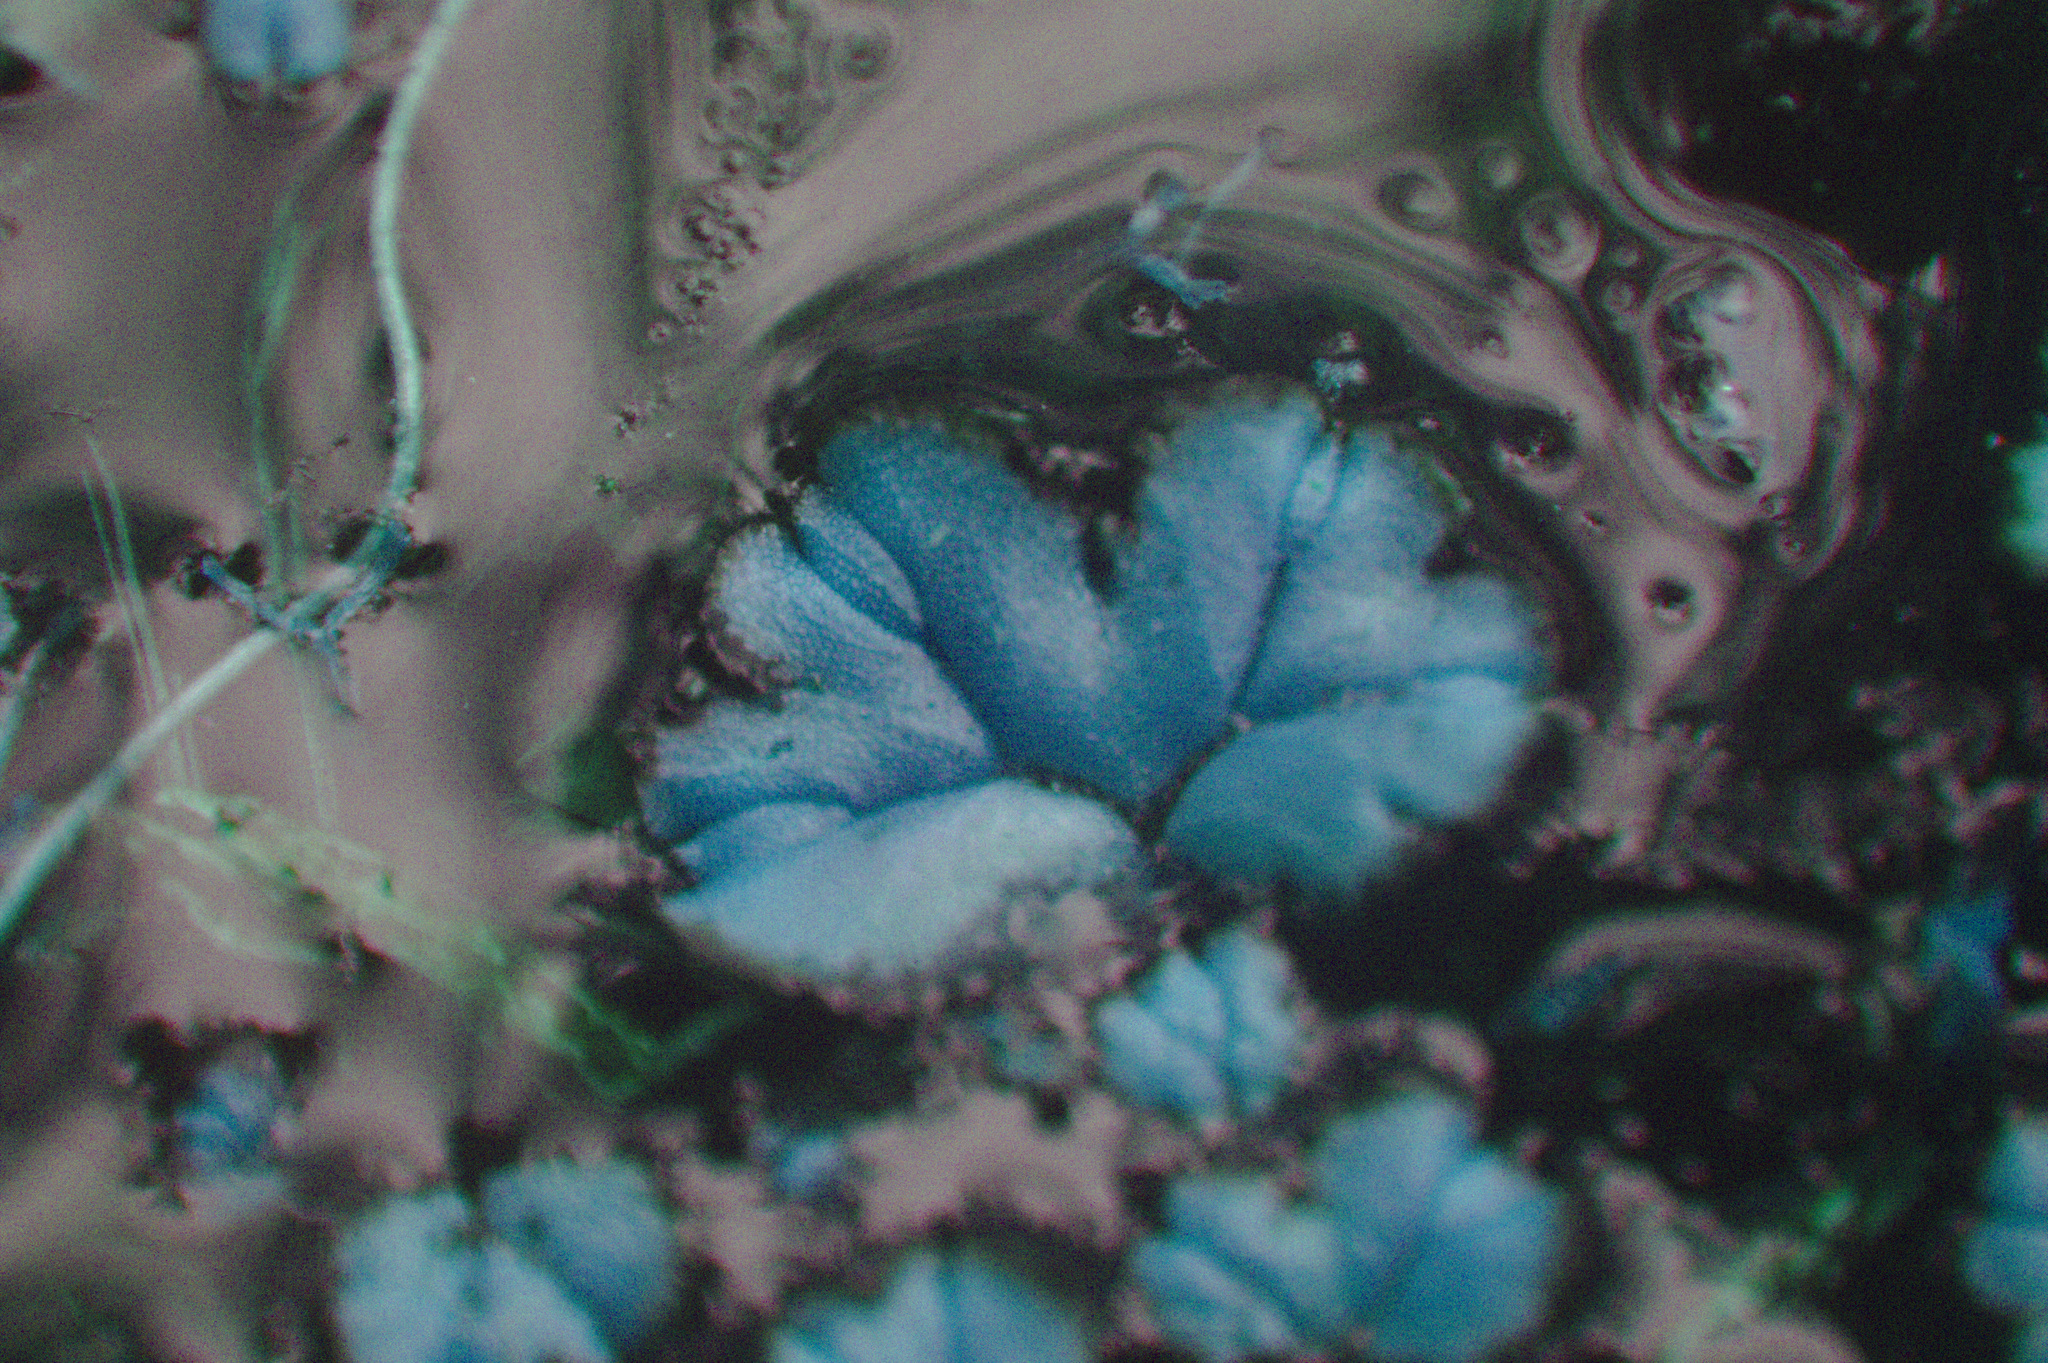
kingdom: Plantae
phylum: Marchantiophyta
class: Marchantiopsida
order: Marchantiales
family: Ricciaceae
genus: Ricciocarpos
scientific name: Ricciocarpos natans
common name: Purple-fringed liverwort
